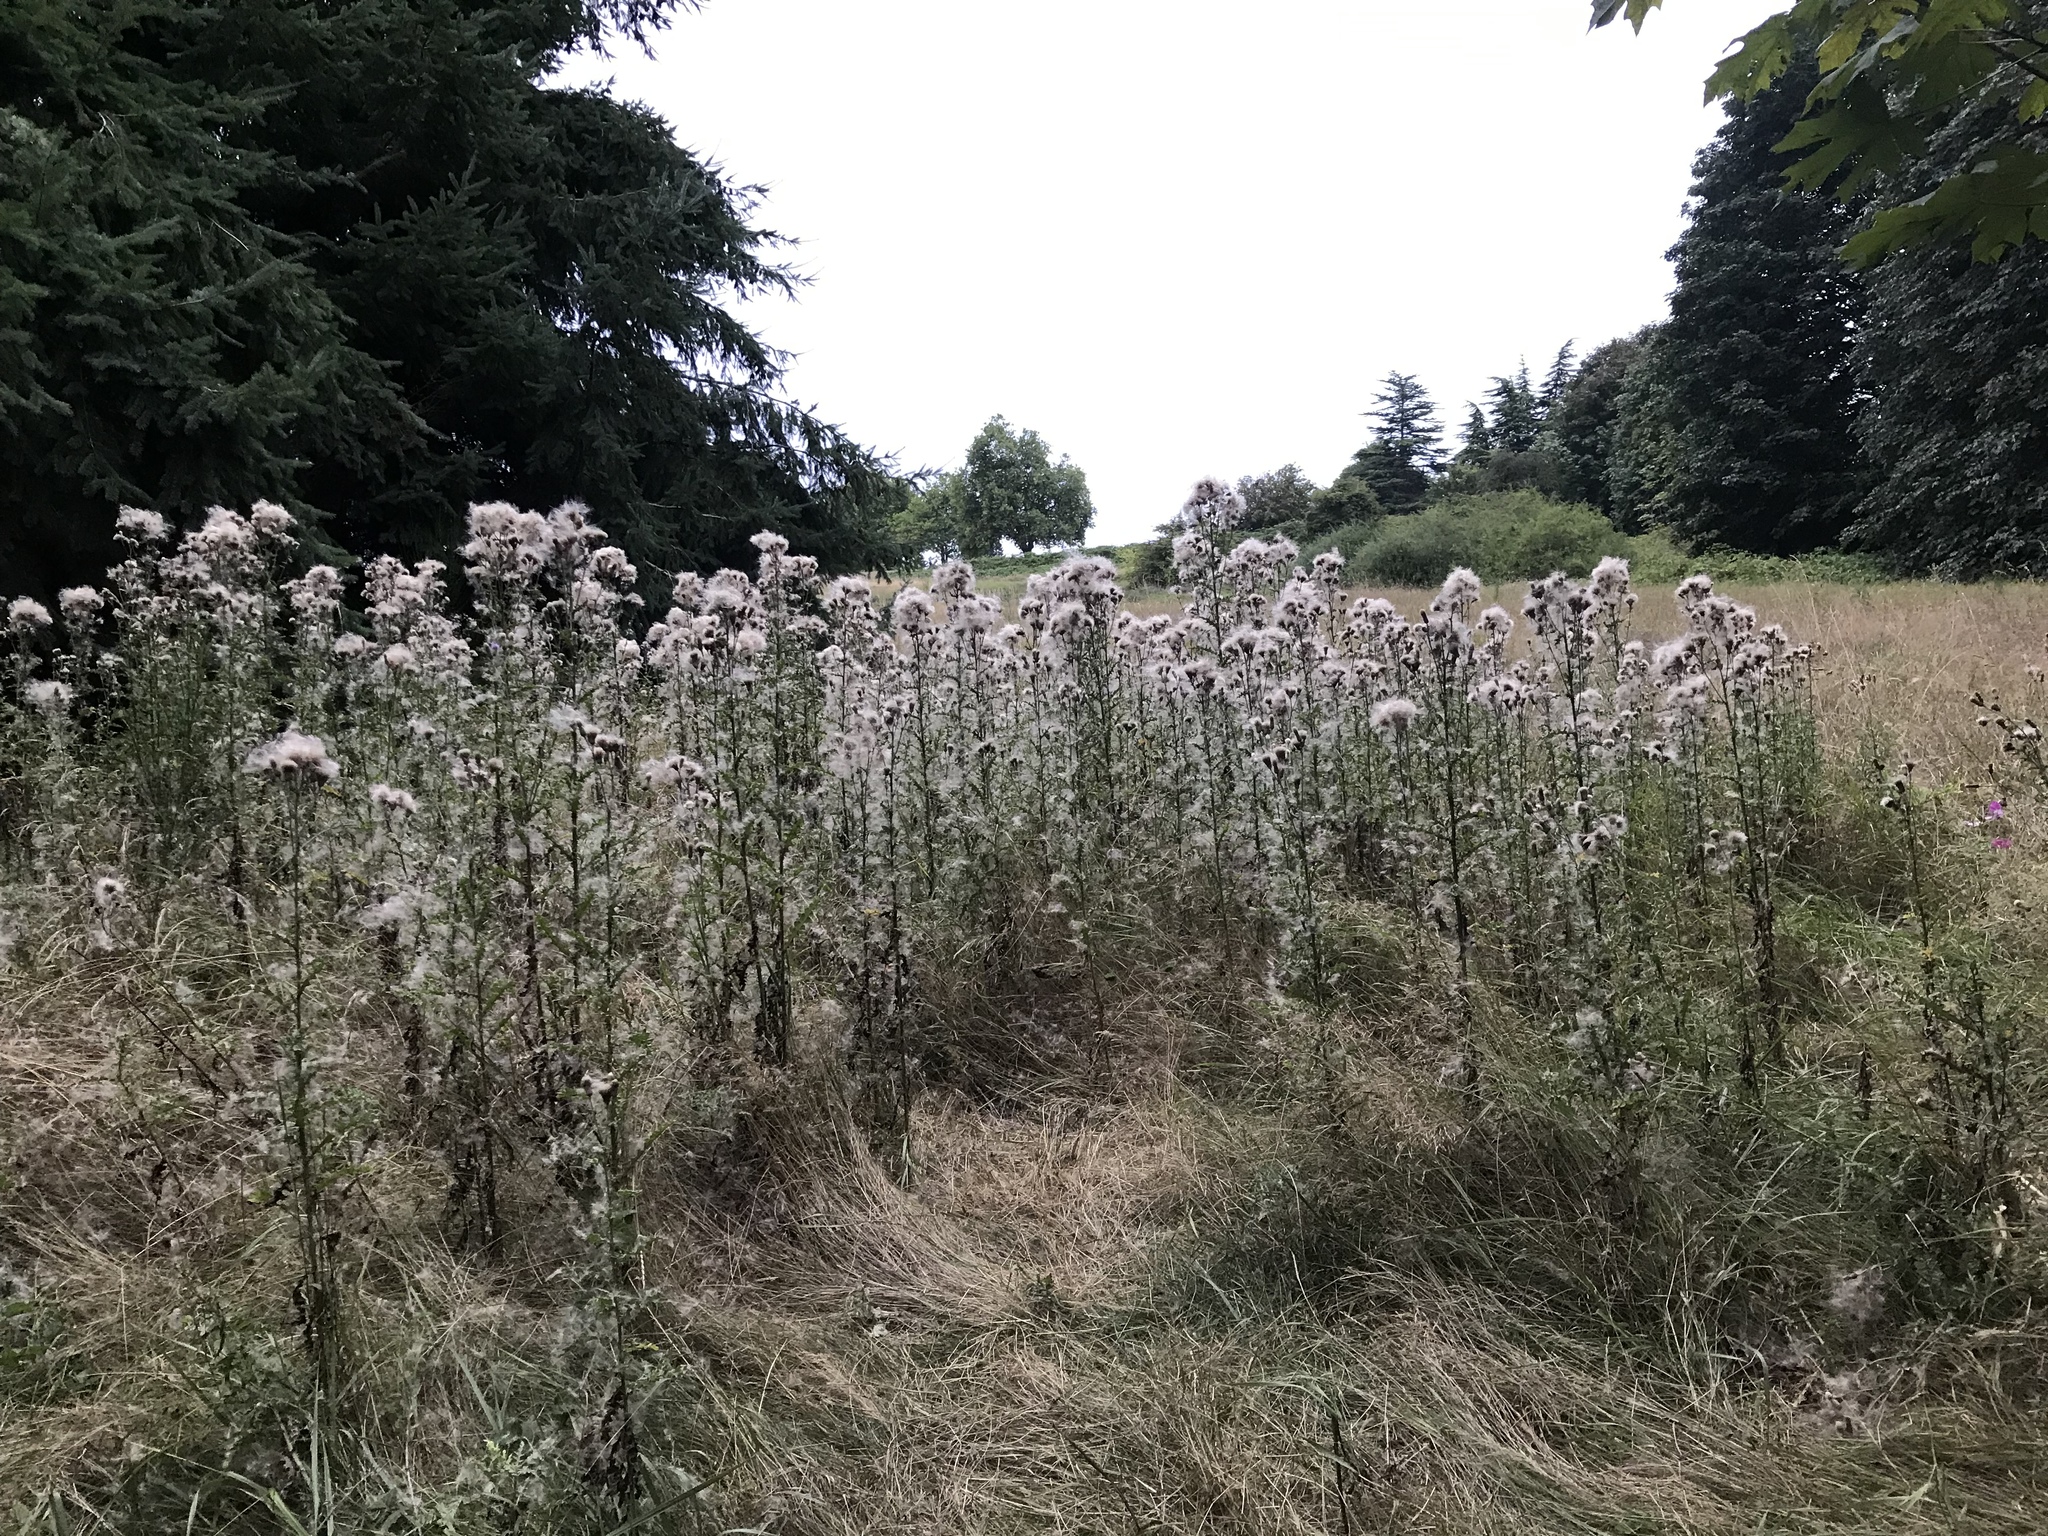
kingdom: Plantae
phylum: Tracheophyta
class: Magnoliopsida
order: Asterales
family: Asteraceae
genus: Cirsium
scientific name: Cirsium arvense
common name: Creeping thistle
